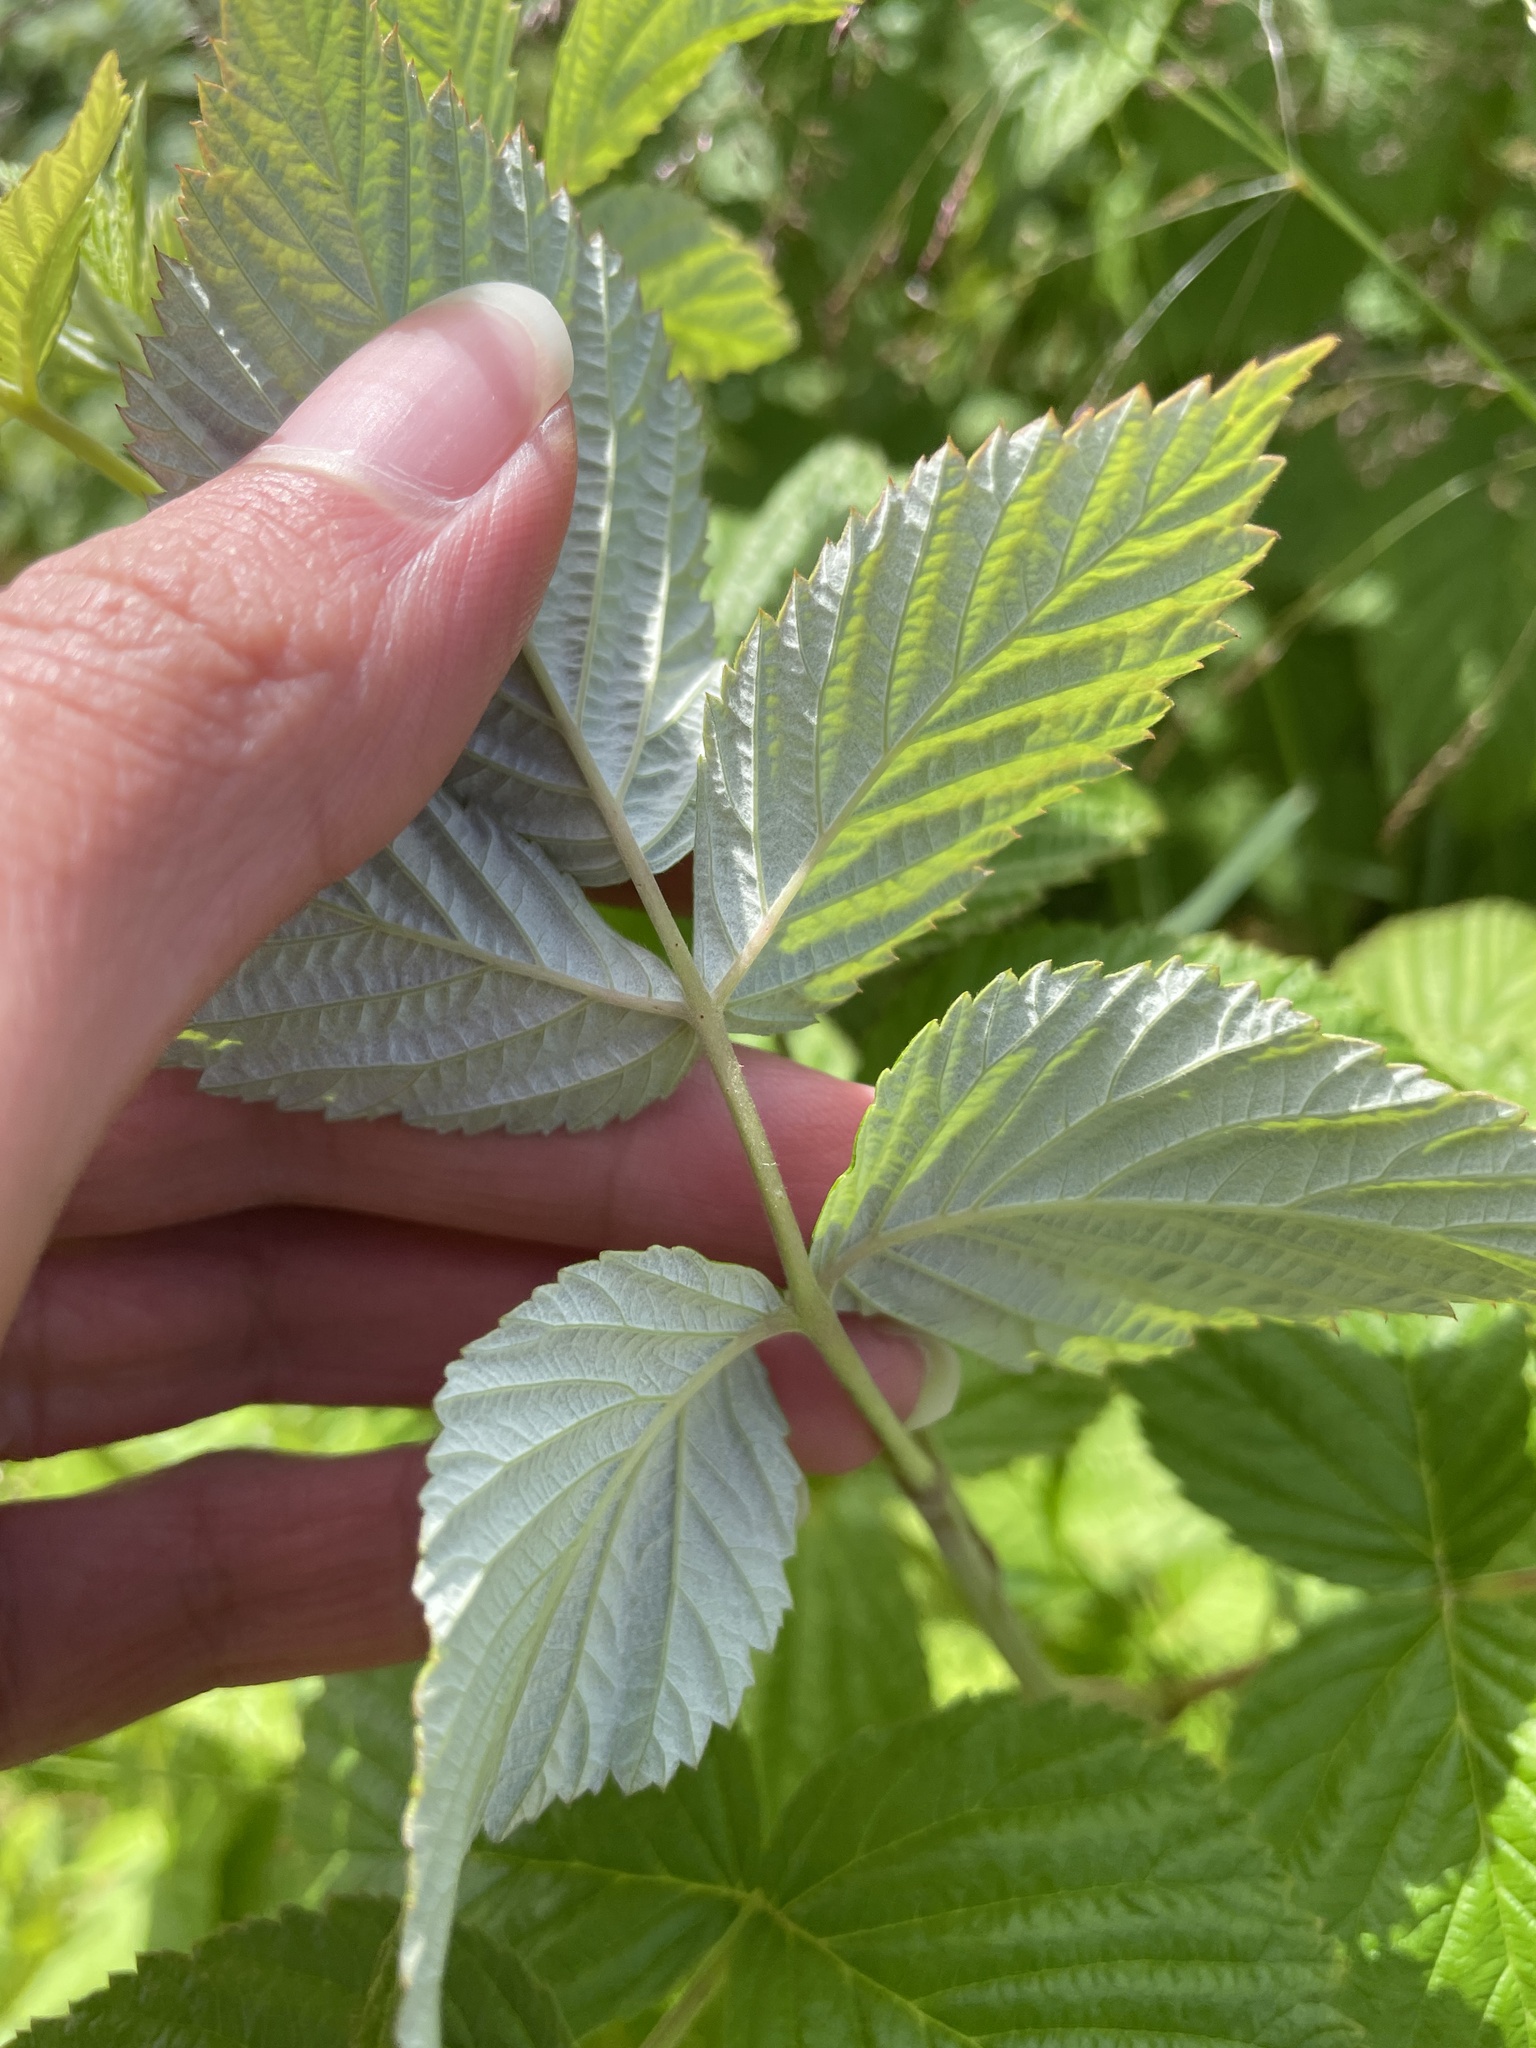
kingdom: Plantae
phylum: Tracheophyta
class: Magnoliopsida
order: Rosales
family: Rosaceae
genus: Rubus
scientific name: Rubus idaeus
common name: Raspberry
